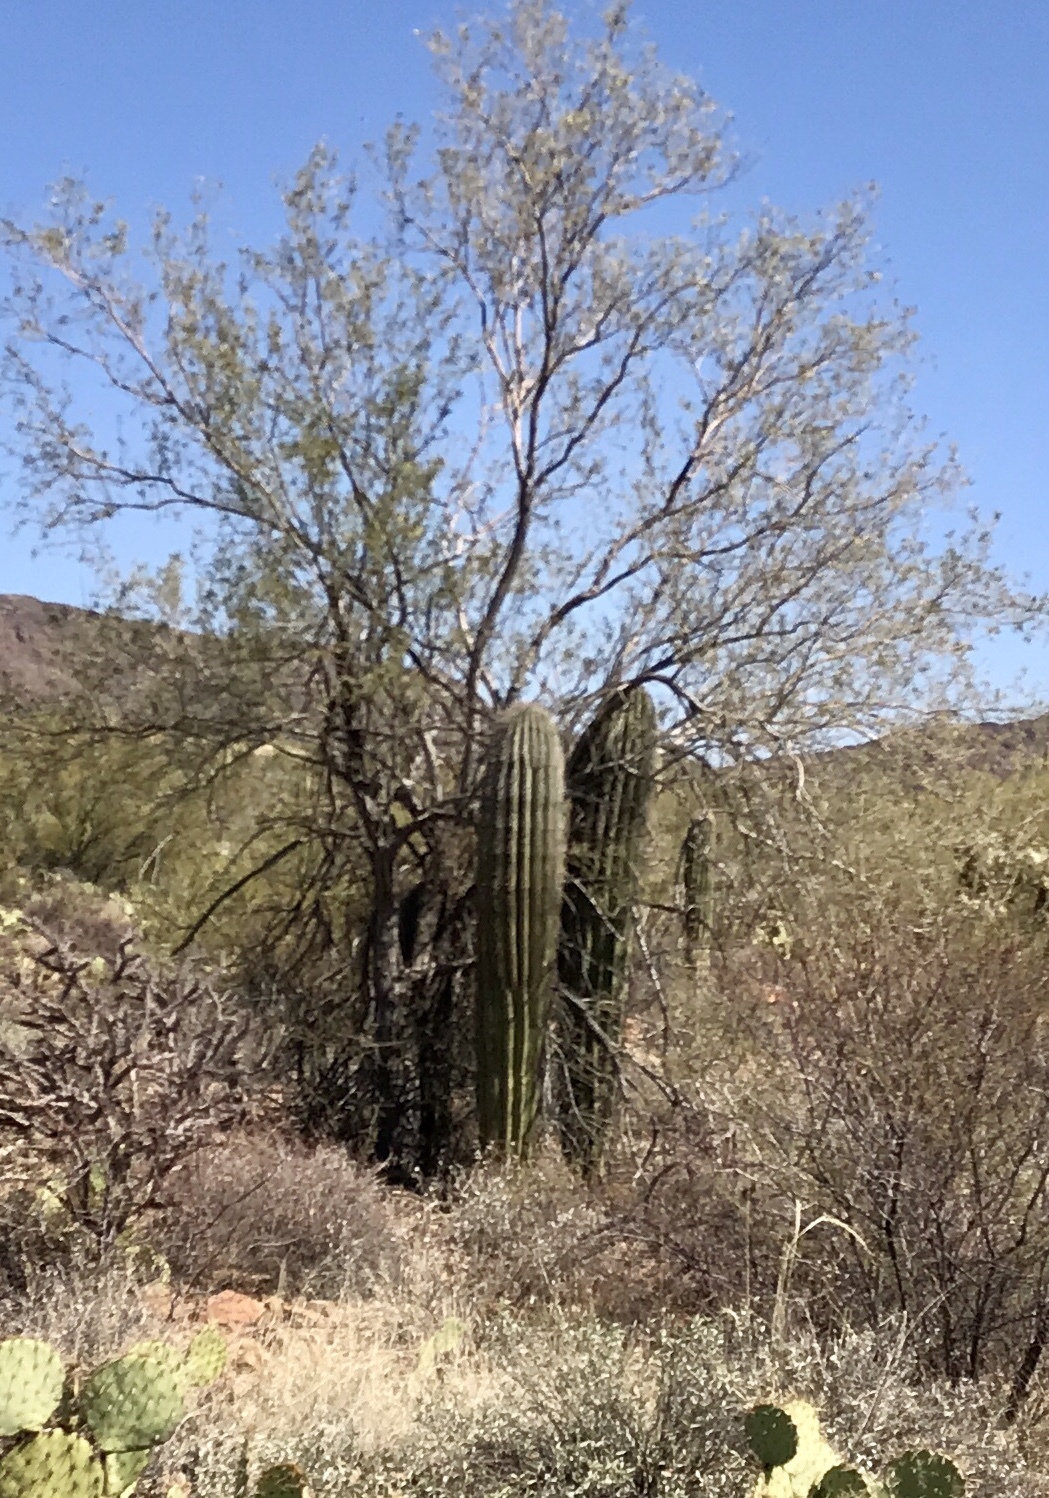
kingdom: Plantae
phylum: Tracheophyta
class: Magnoliopsida
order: Caryophyllales
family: Cactaceae
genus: Carnegiea
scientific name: Carnegiea gigantea
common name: Saguaro
